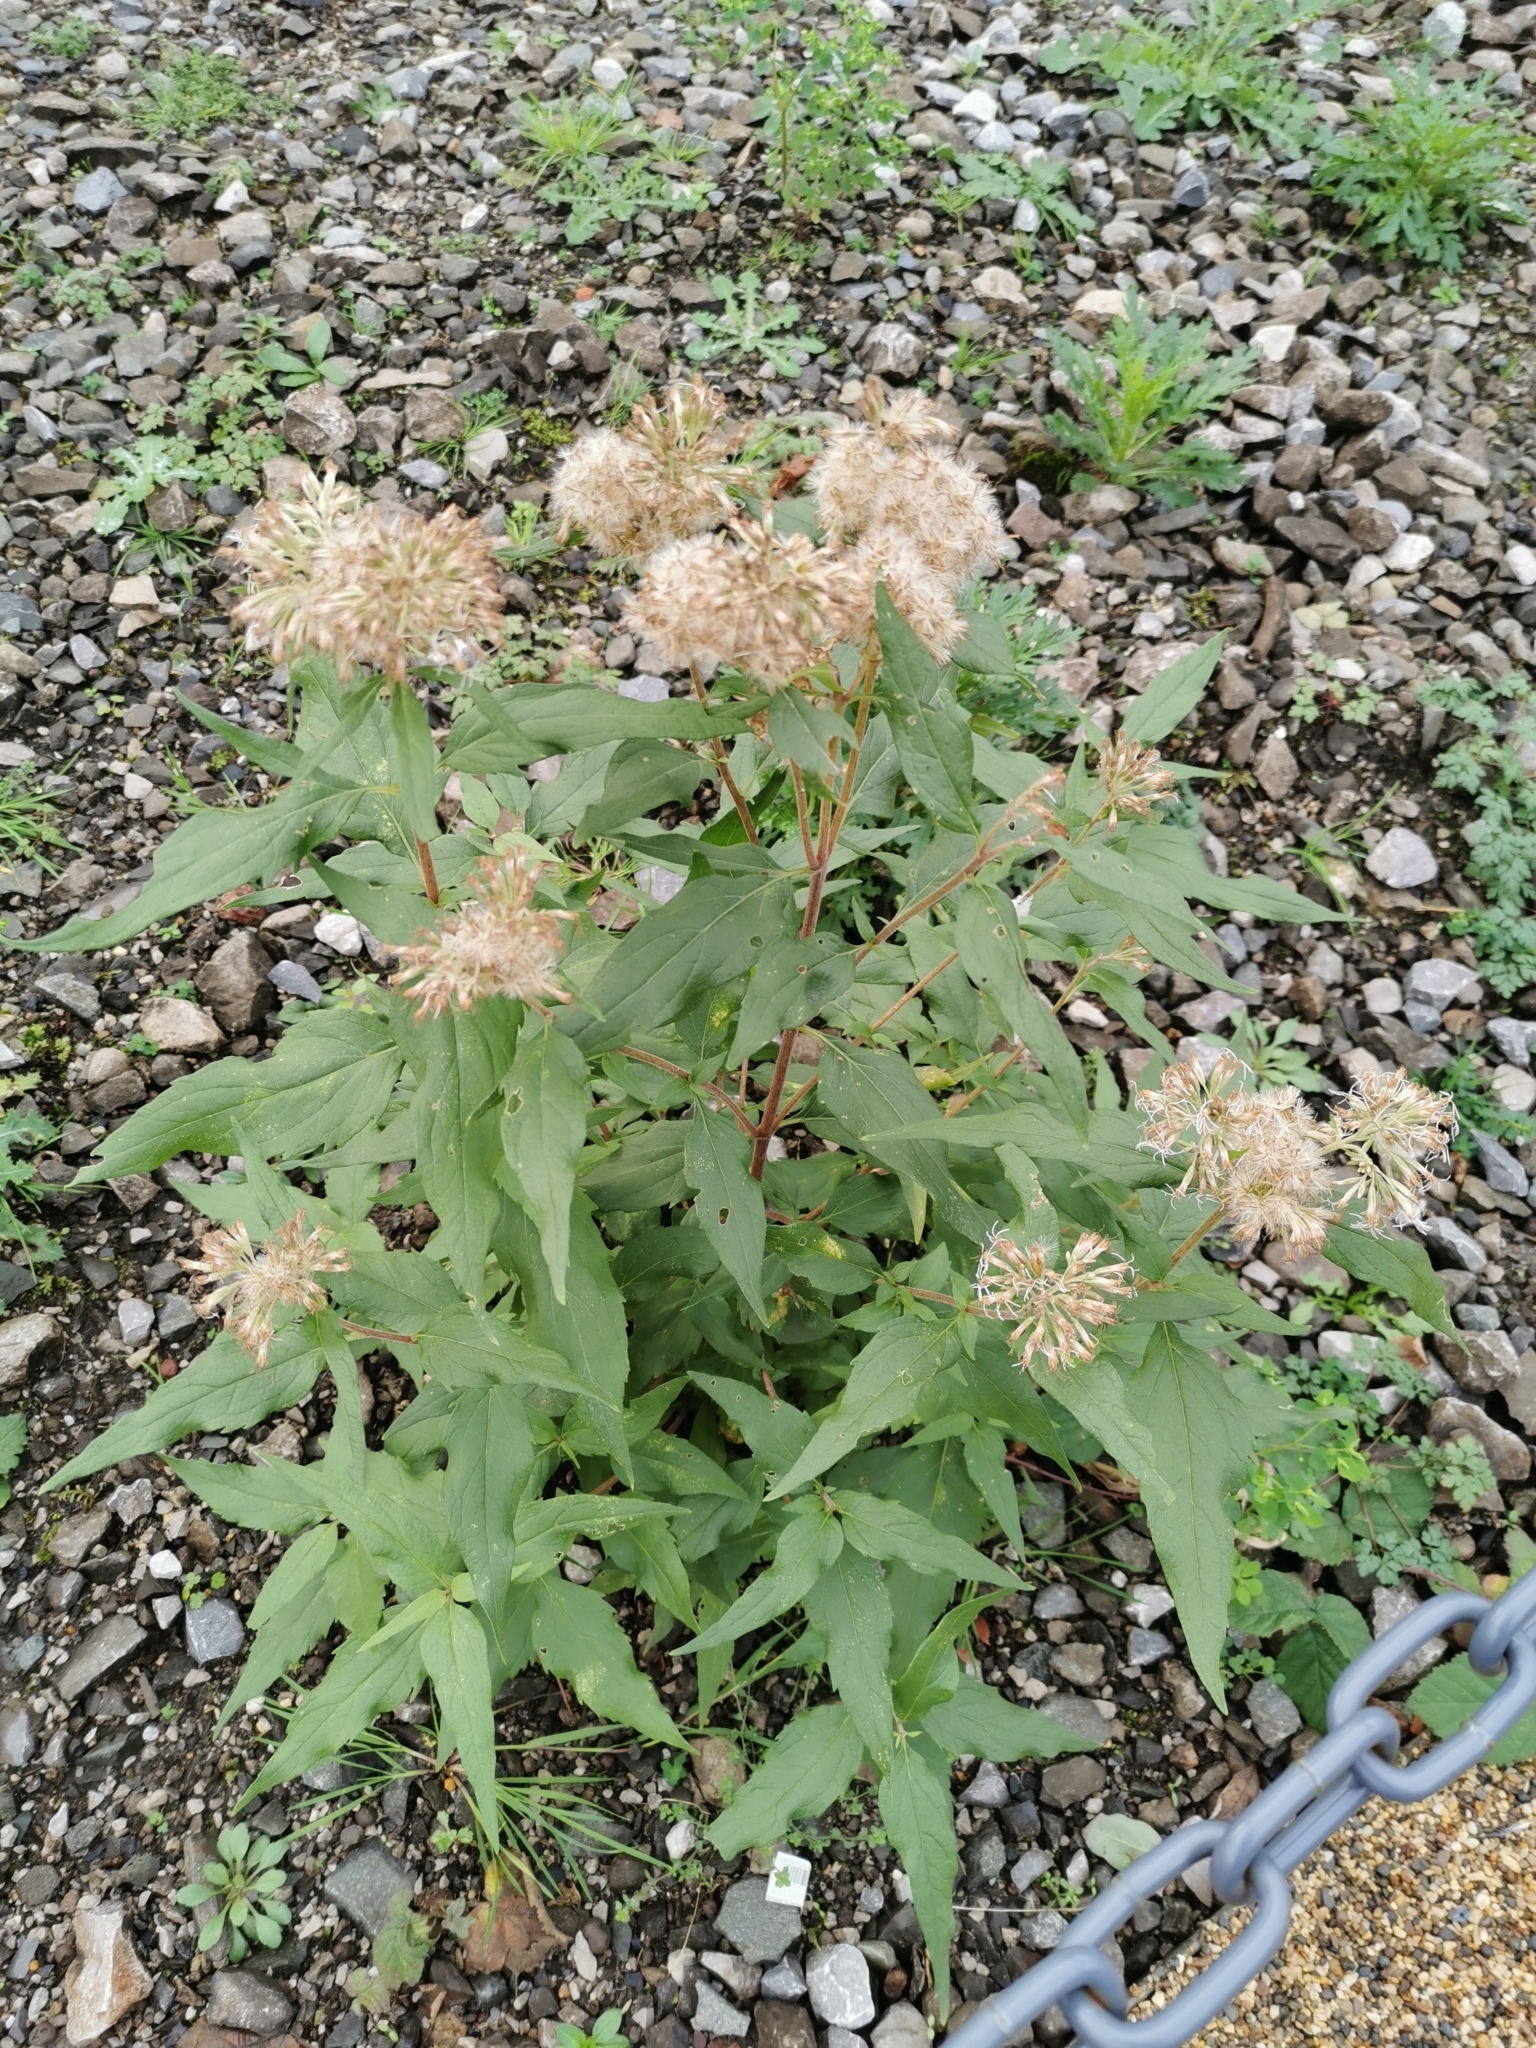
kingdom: Plantae
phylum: Tracheophyta
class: Magnoliopsida
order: Asterales
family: Asteraceae
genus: Eupatorium
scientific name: Eupatorium cannabinum
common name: Hemp-agrimony
